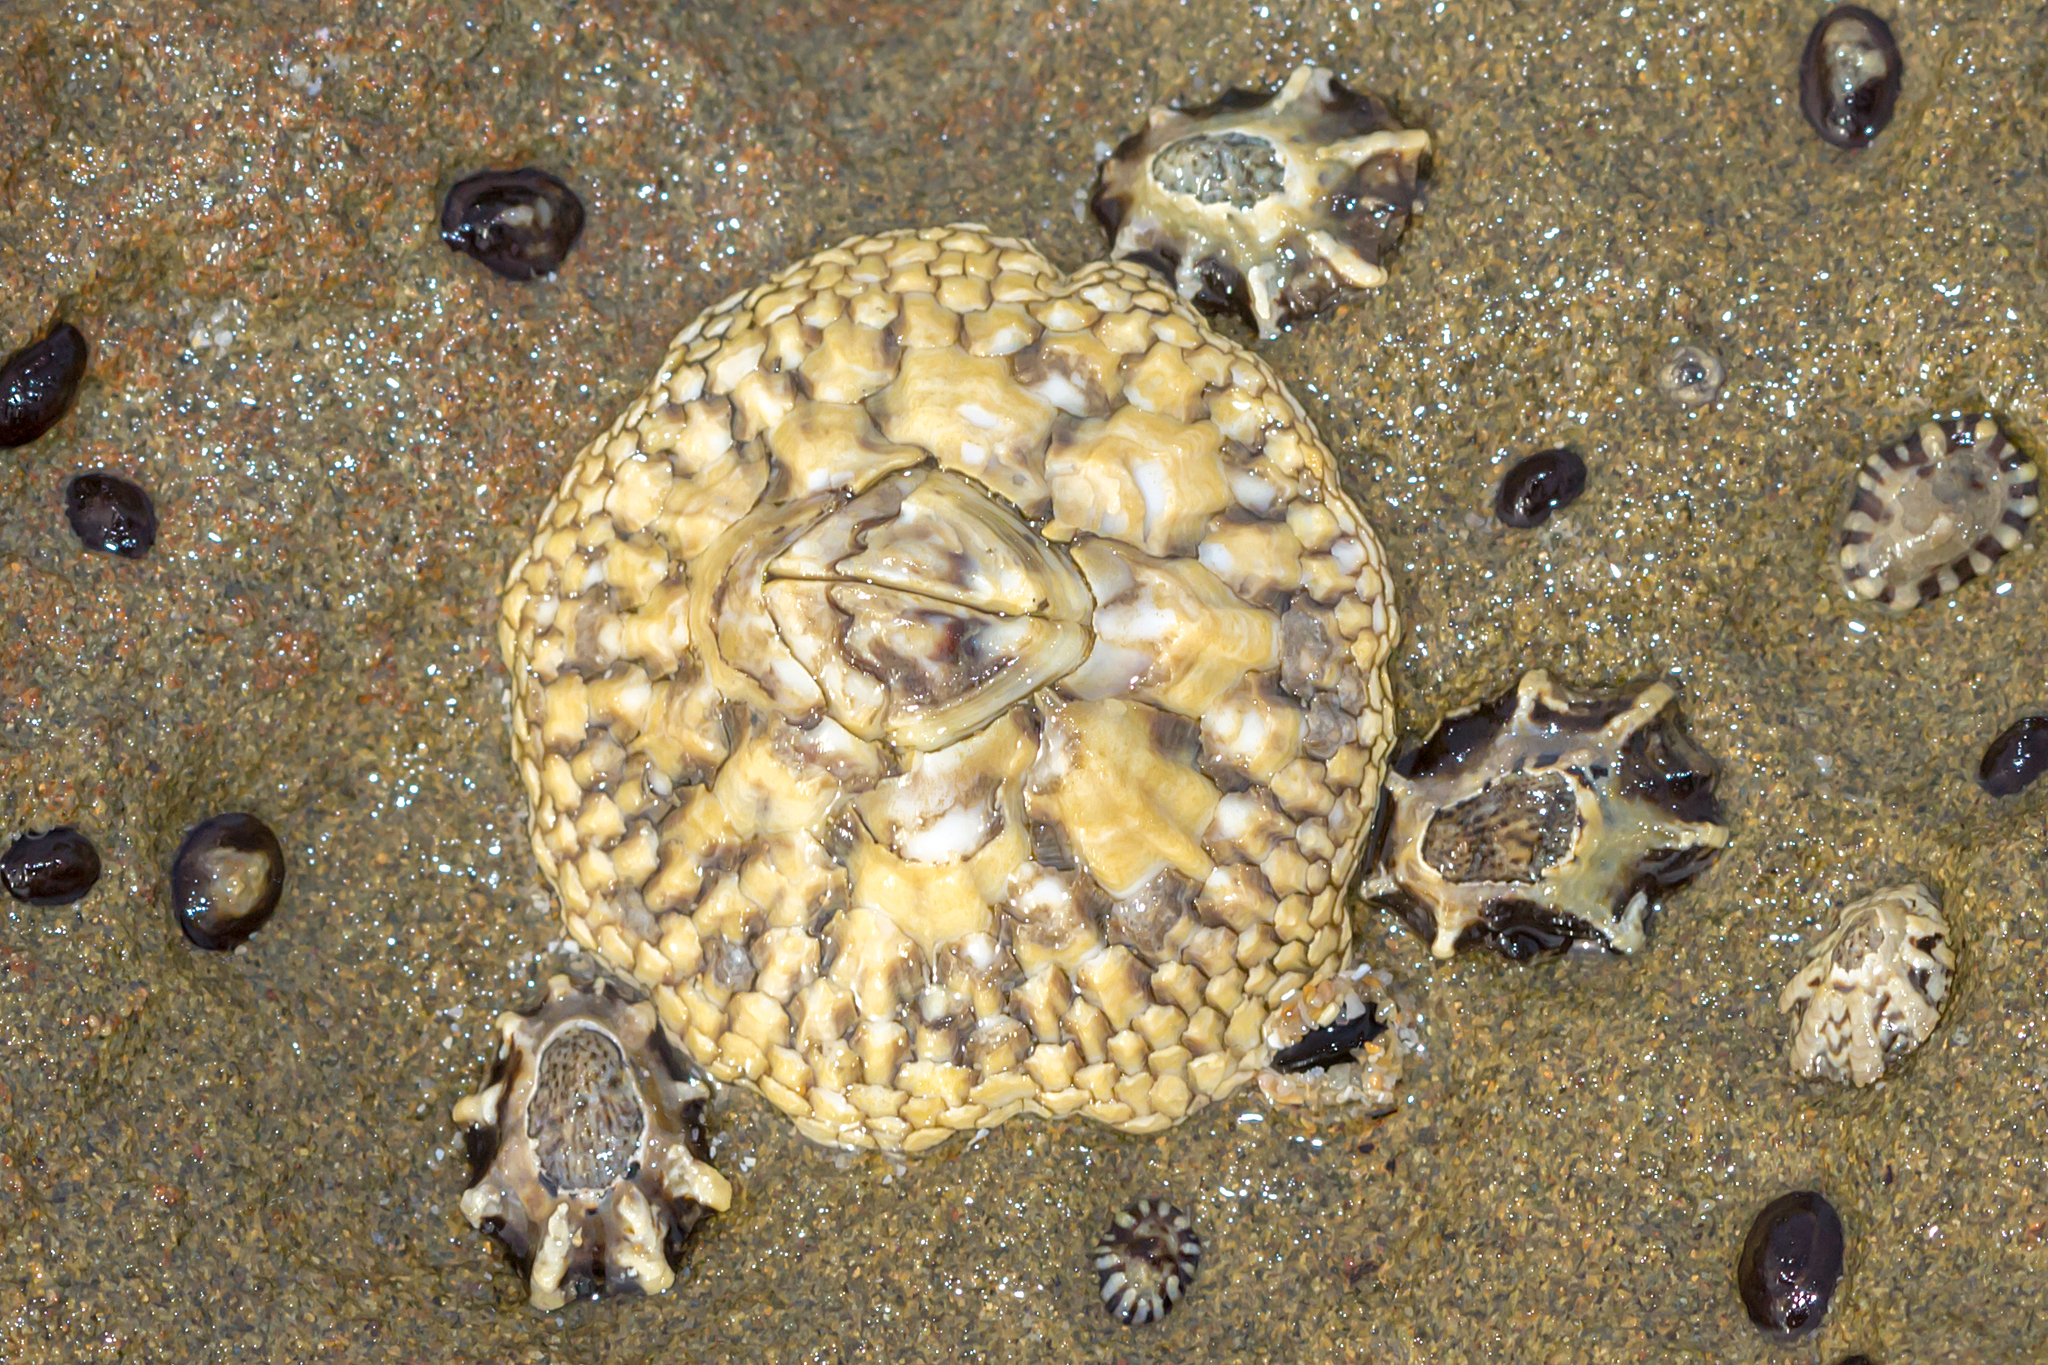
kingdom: Animalia
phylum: Arthropoda
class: Maxillopoda
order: Sessilia
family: Catophragmidae
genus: Catomerus
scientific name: Catomerus polymerus
